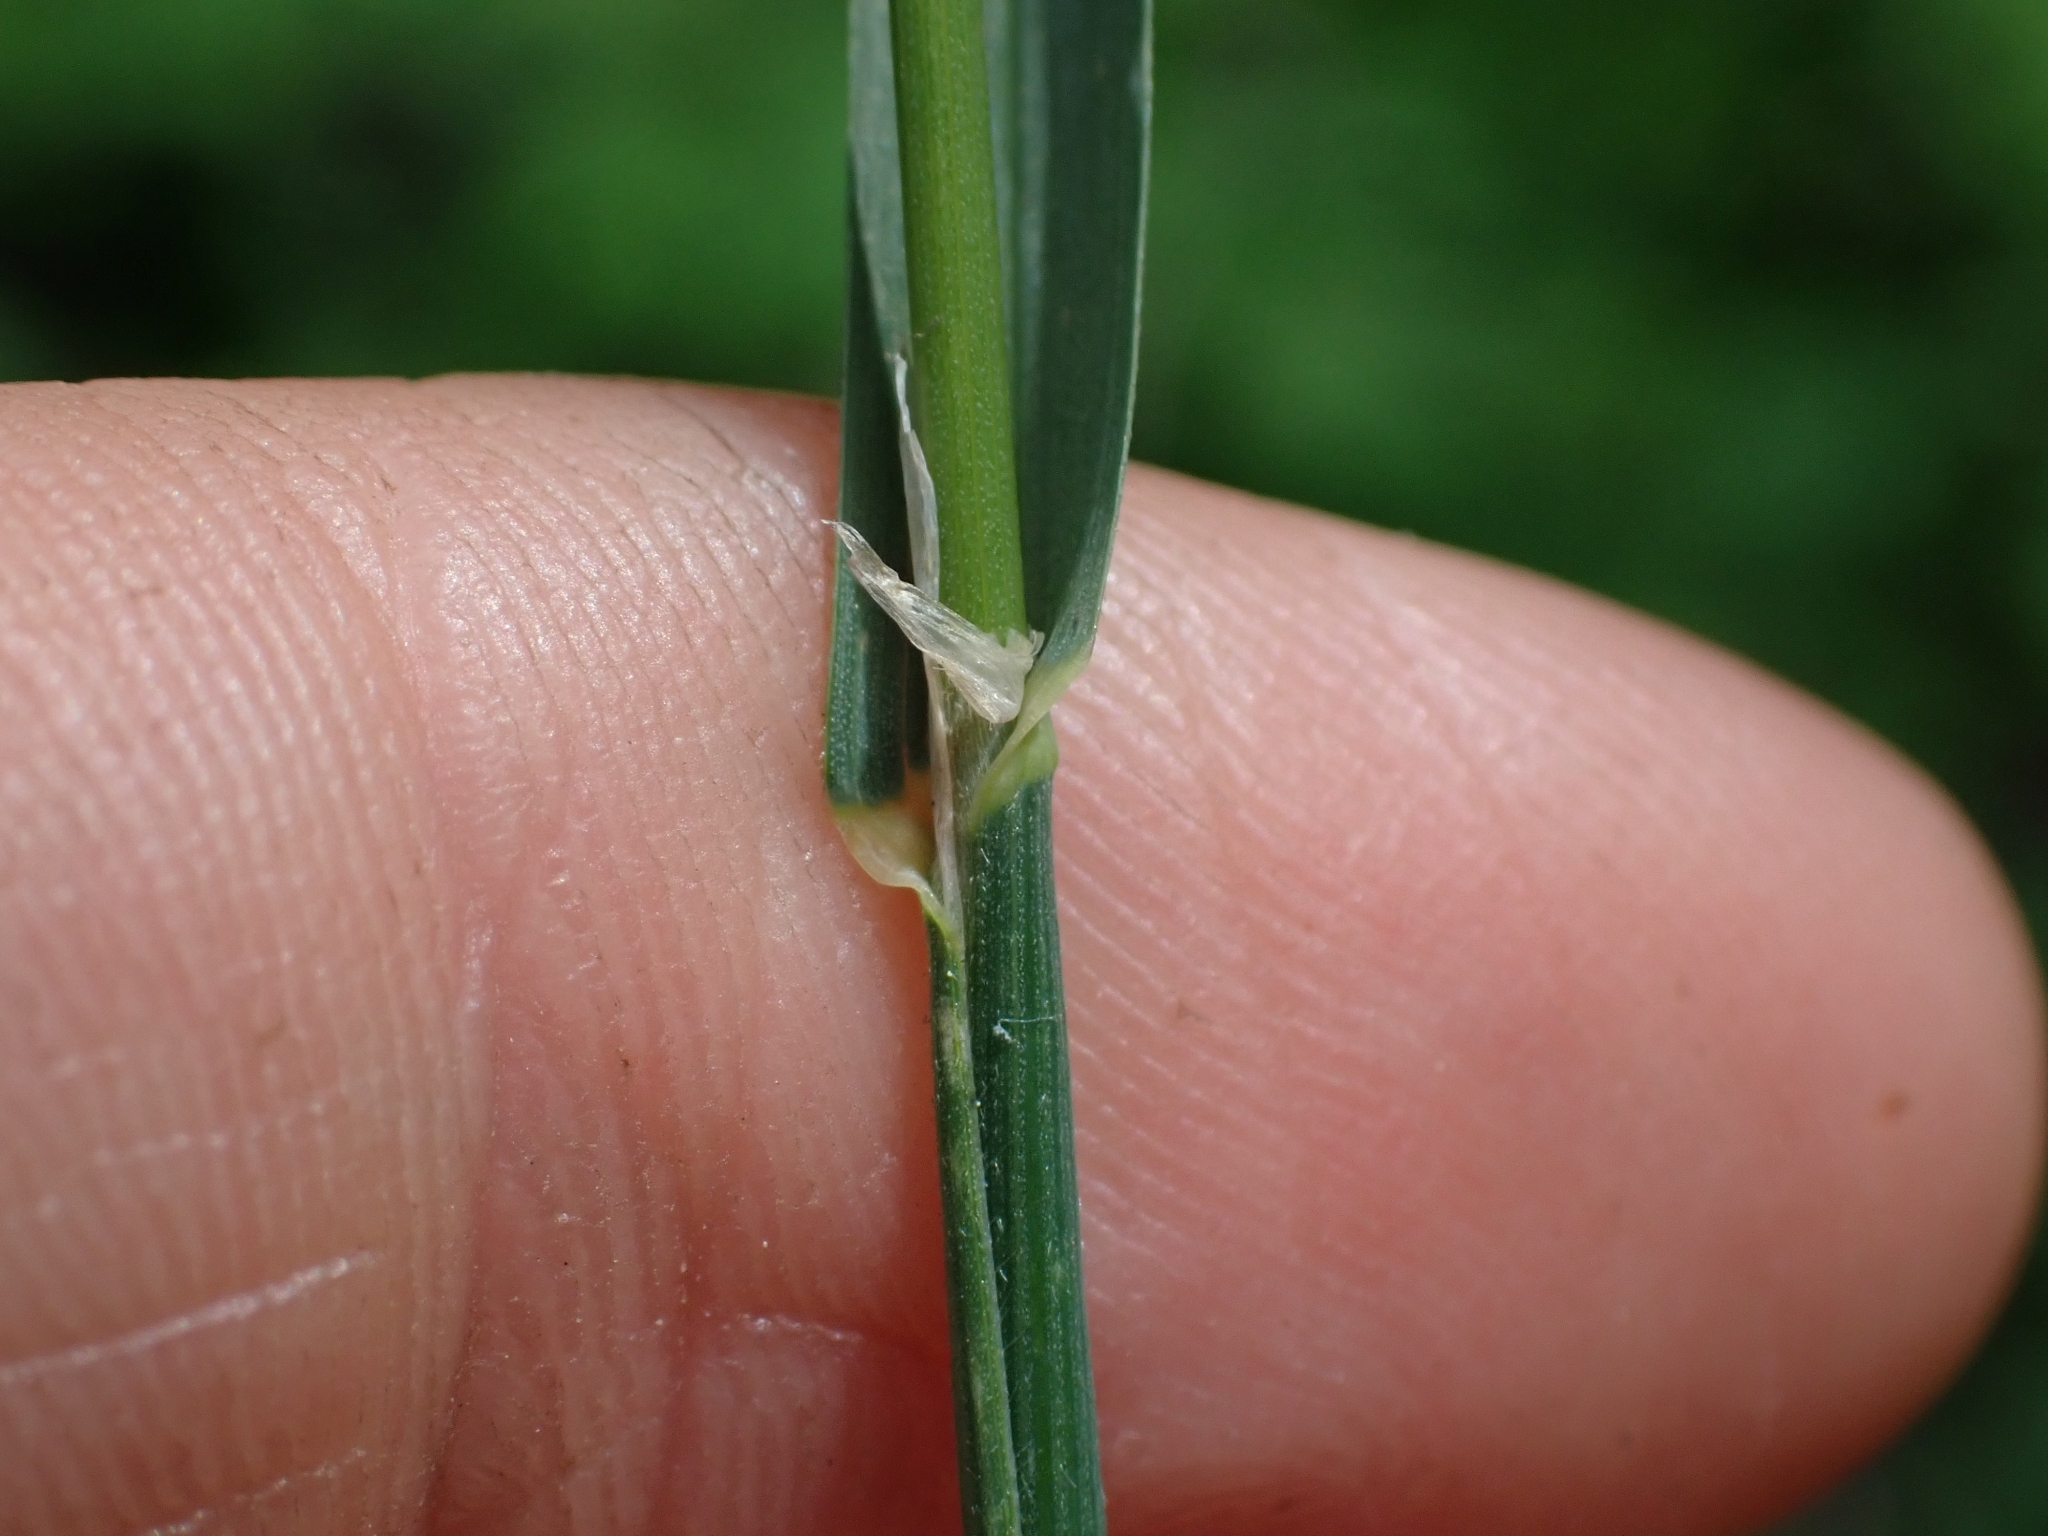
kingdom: Plantae
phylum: Tracheophyta
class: Liliopsida
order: Poales
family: Poaceae
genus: Dactylis
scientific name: Dactylis glomerata
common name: Orchardgrass
